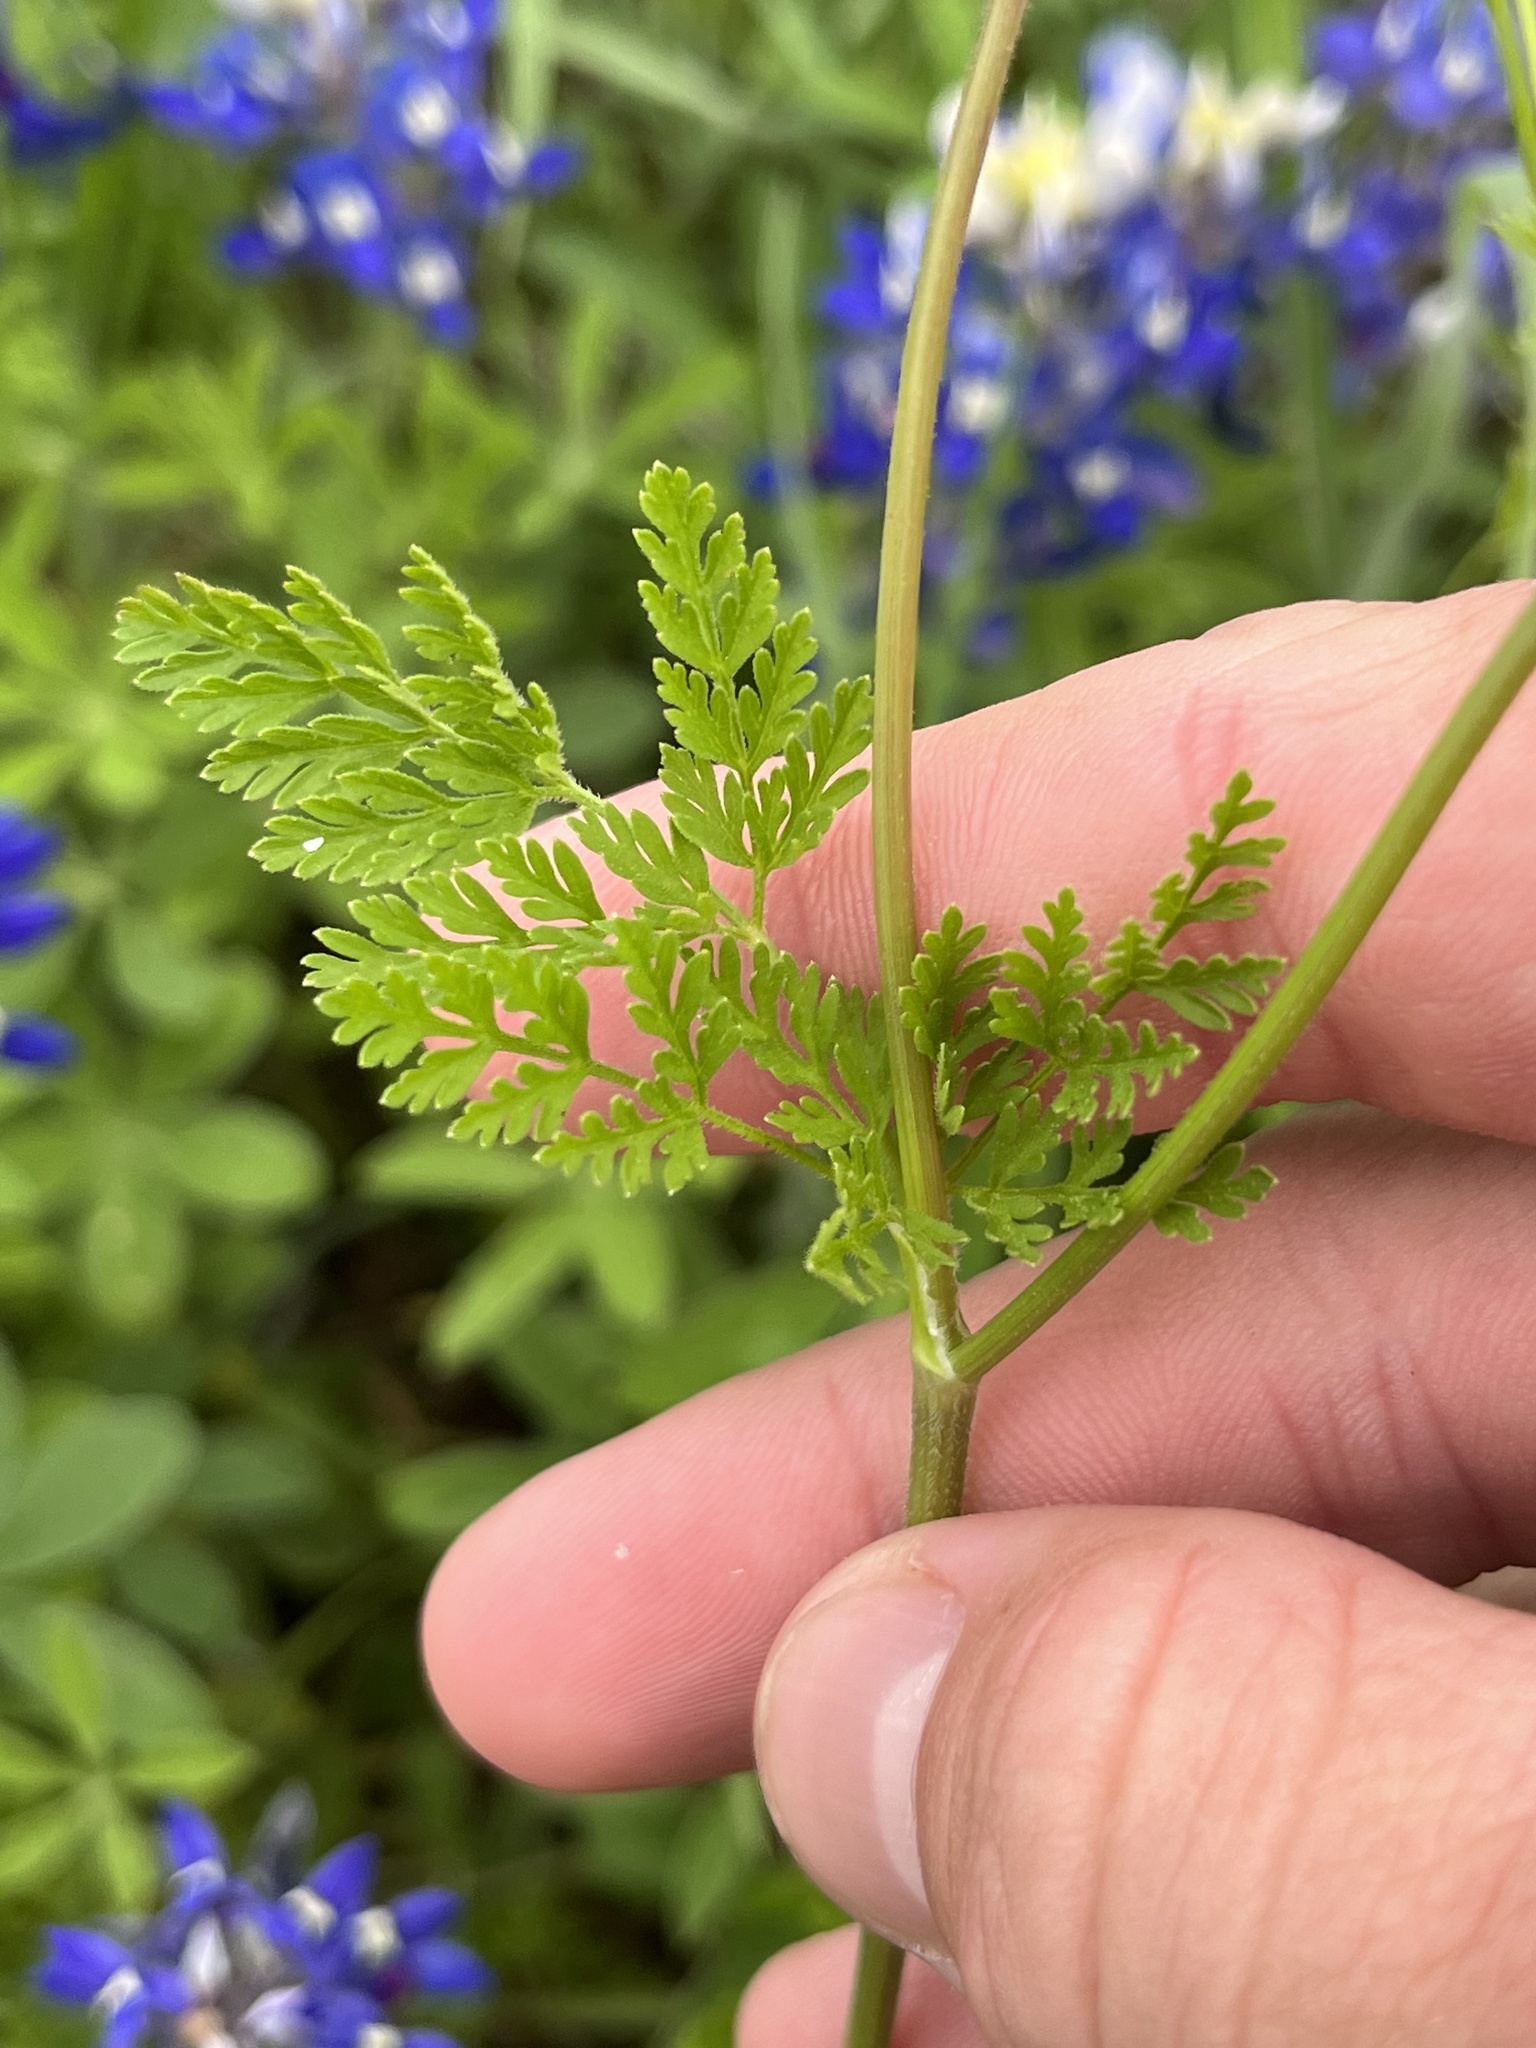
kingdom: Plantae
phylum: Tracheophyta
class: Magnoliopsida
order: Apiales
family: Apiaceae
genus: Chaerophyllum
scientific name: Chaerophyllum tainturieri
